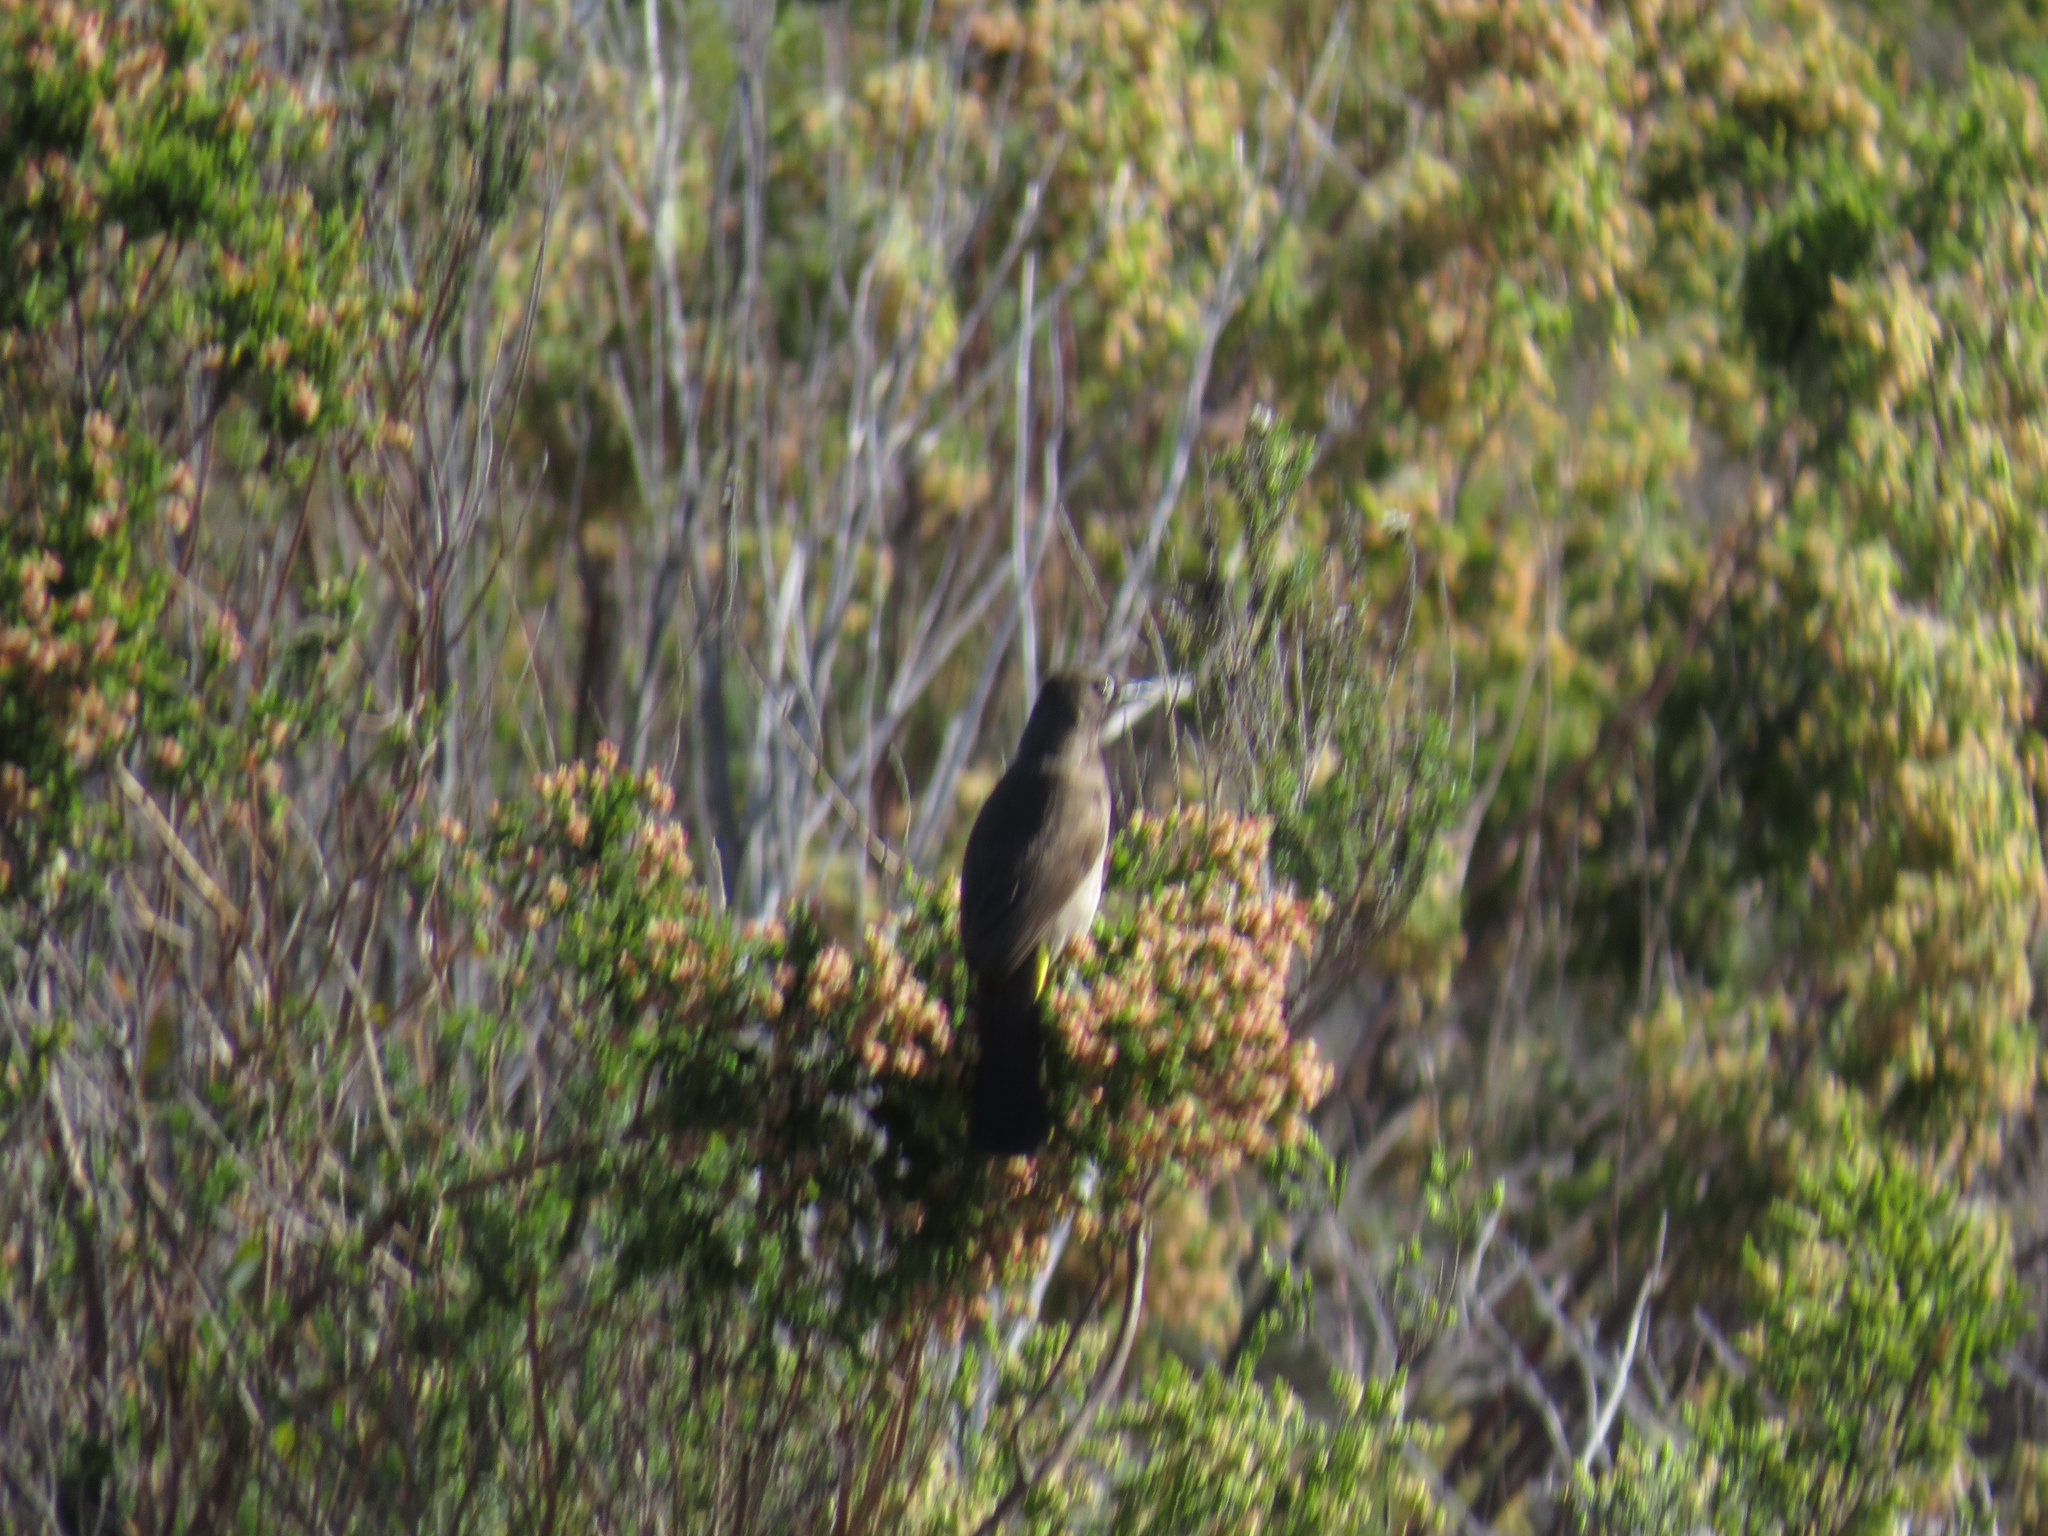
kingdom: Animalia
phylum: Chordata
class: Aves
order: Passeriformes
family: Pycnonotidae
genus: Pycnonotus
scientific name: Pycnonotus capensis
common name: Cape bulbul
